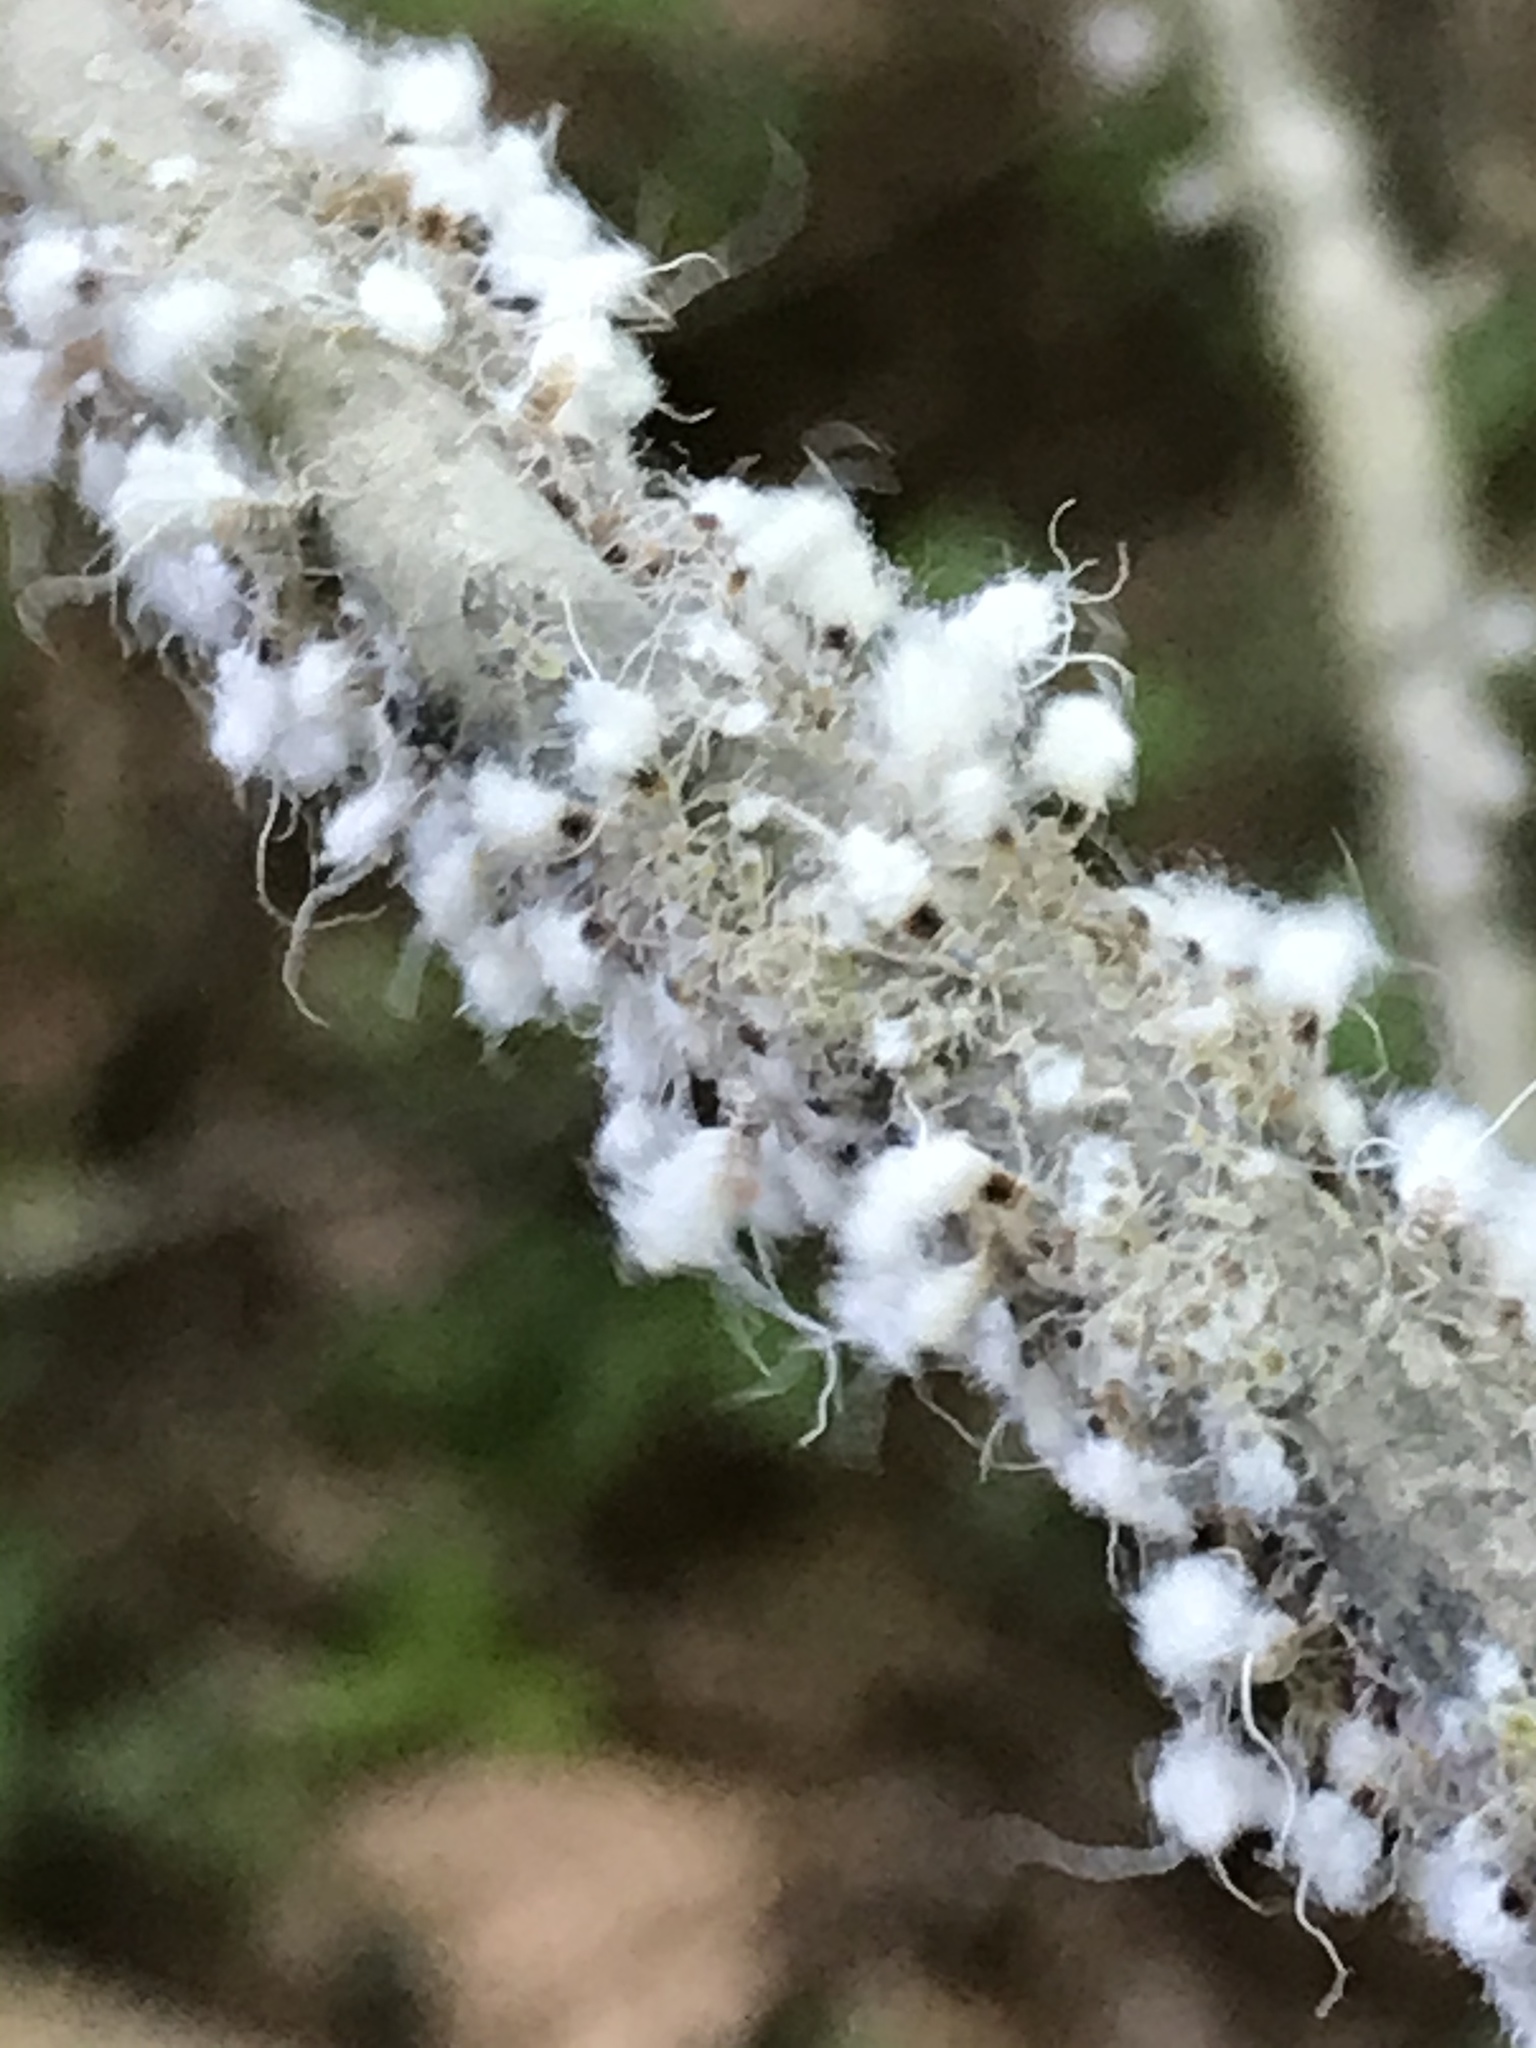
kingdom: Animalia
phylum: Arthropoda
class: Insecta
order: Hemiptera
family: Aphididae
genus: Grylloprociphilus
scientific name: Grylloprociphilus imbricator
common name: Beech blight aphid
